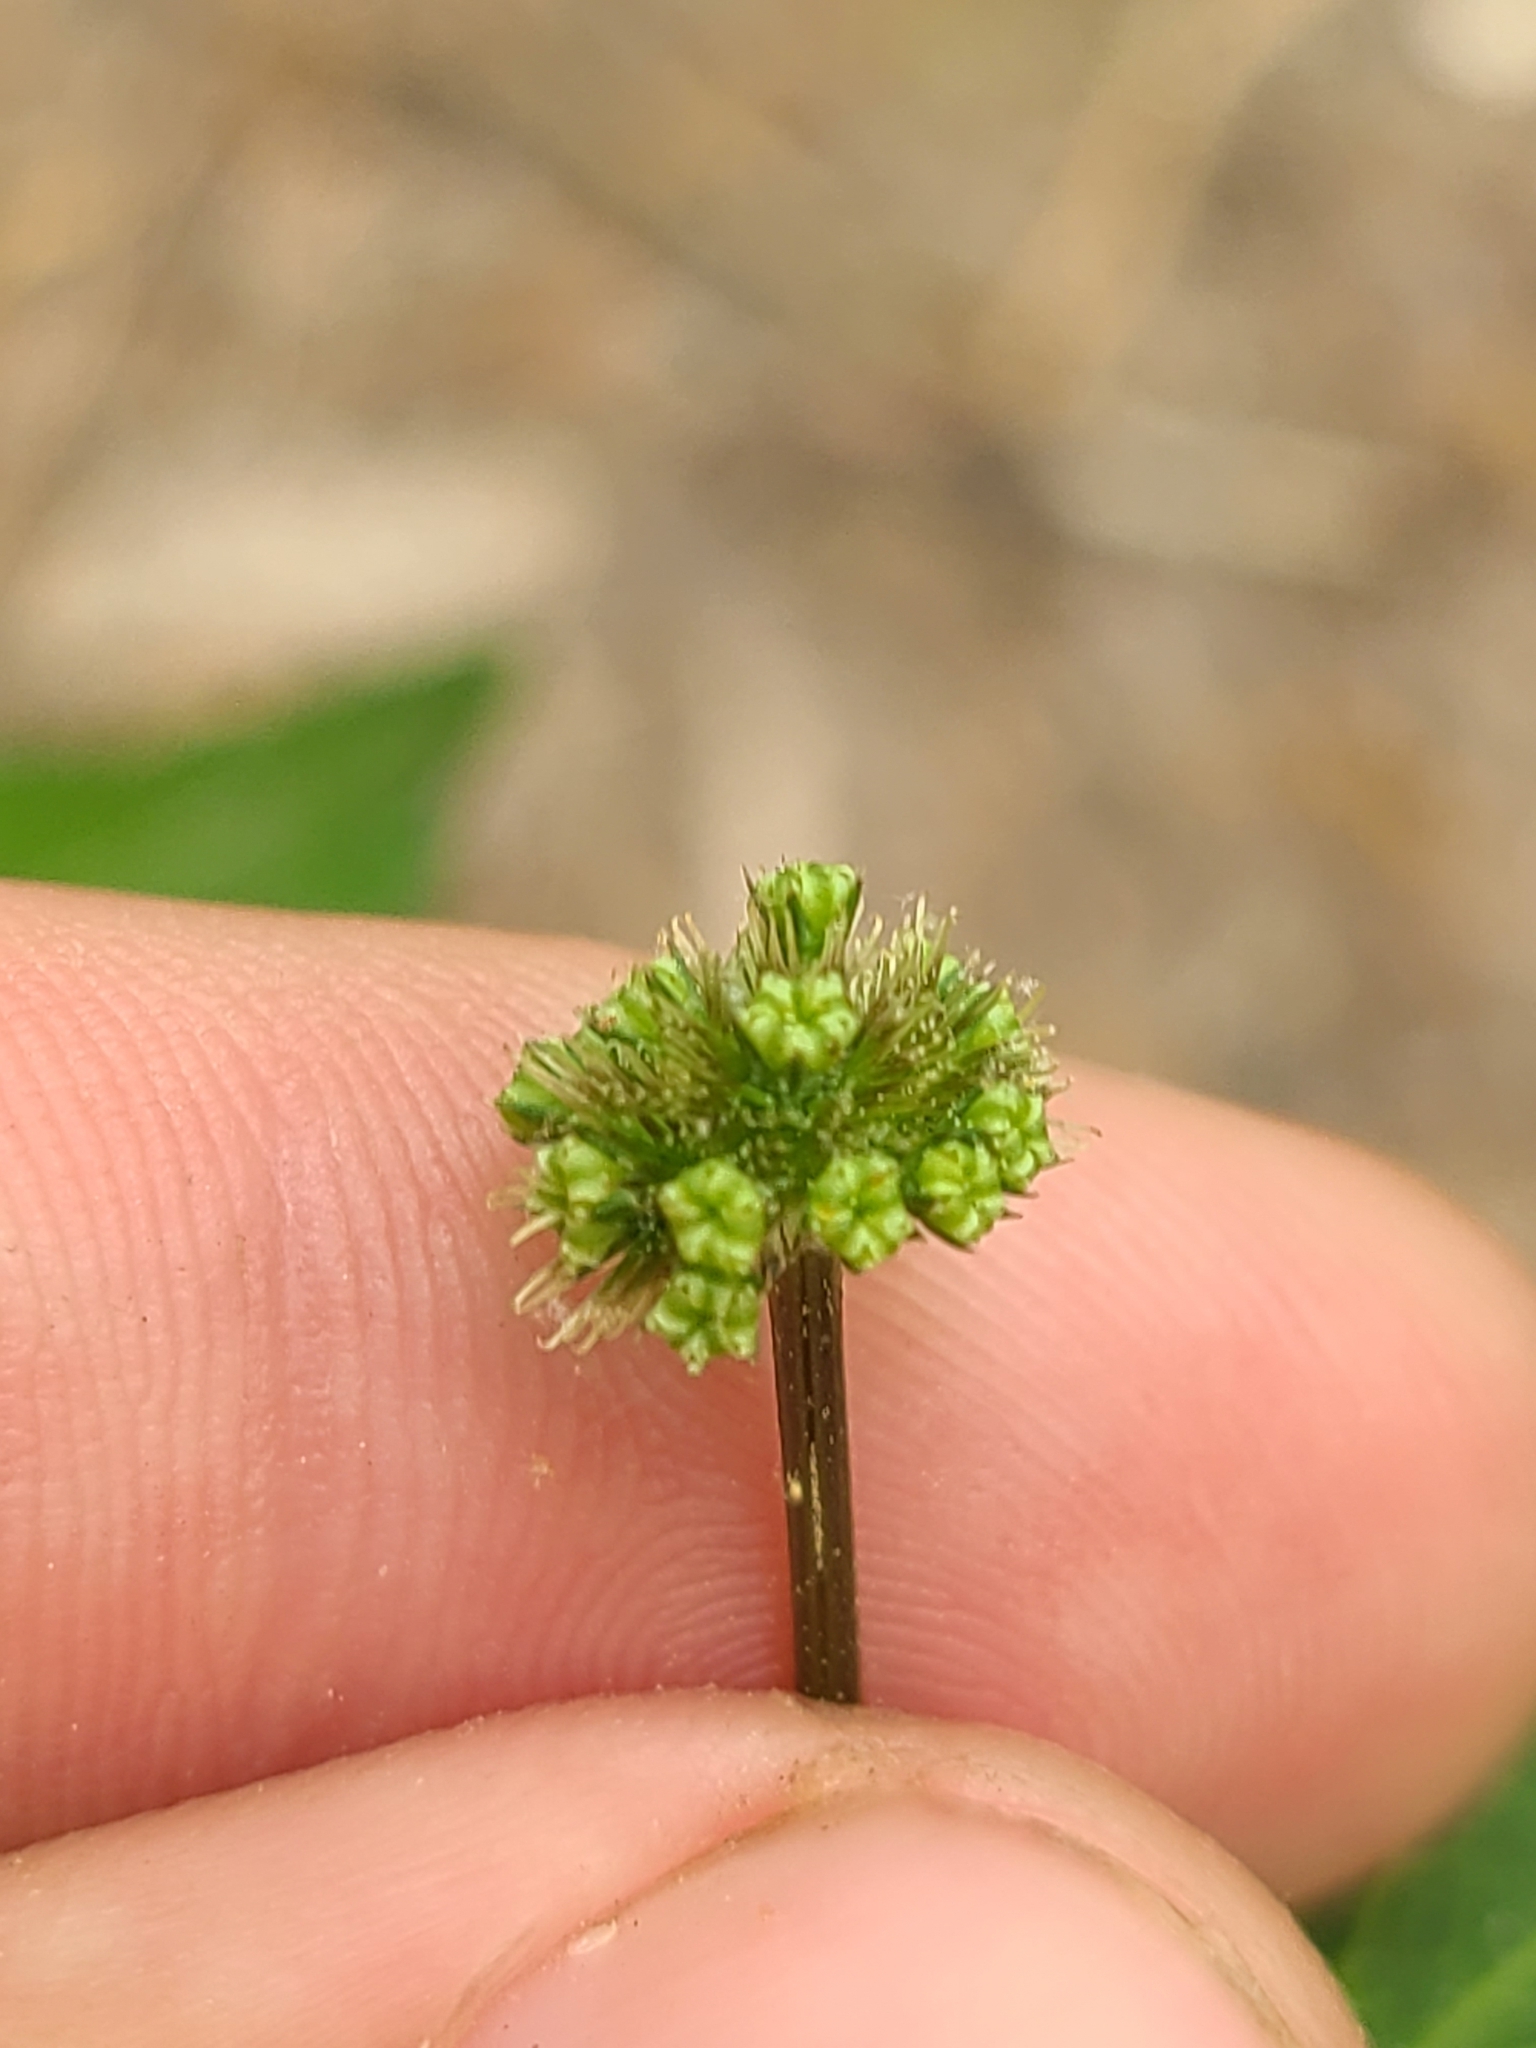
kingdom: Plantae
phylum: Tracheophyta
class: Magnoliopsida
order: Apiales
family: Apiaceae
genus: Sanicula
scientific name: Sanicula smallii
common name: Small's black snakeroot
